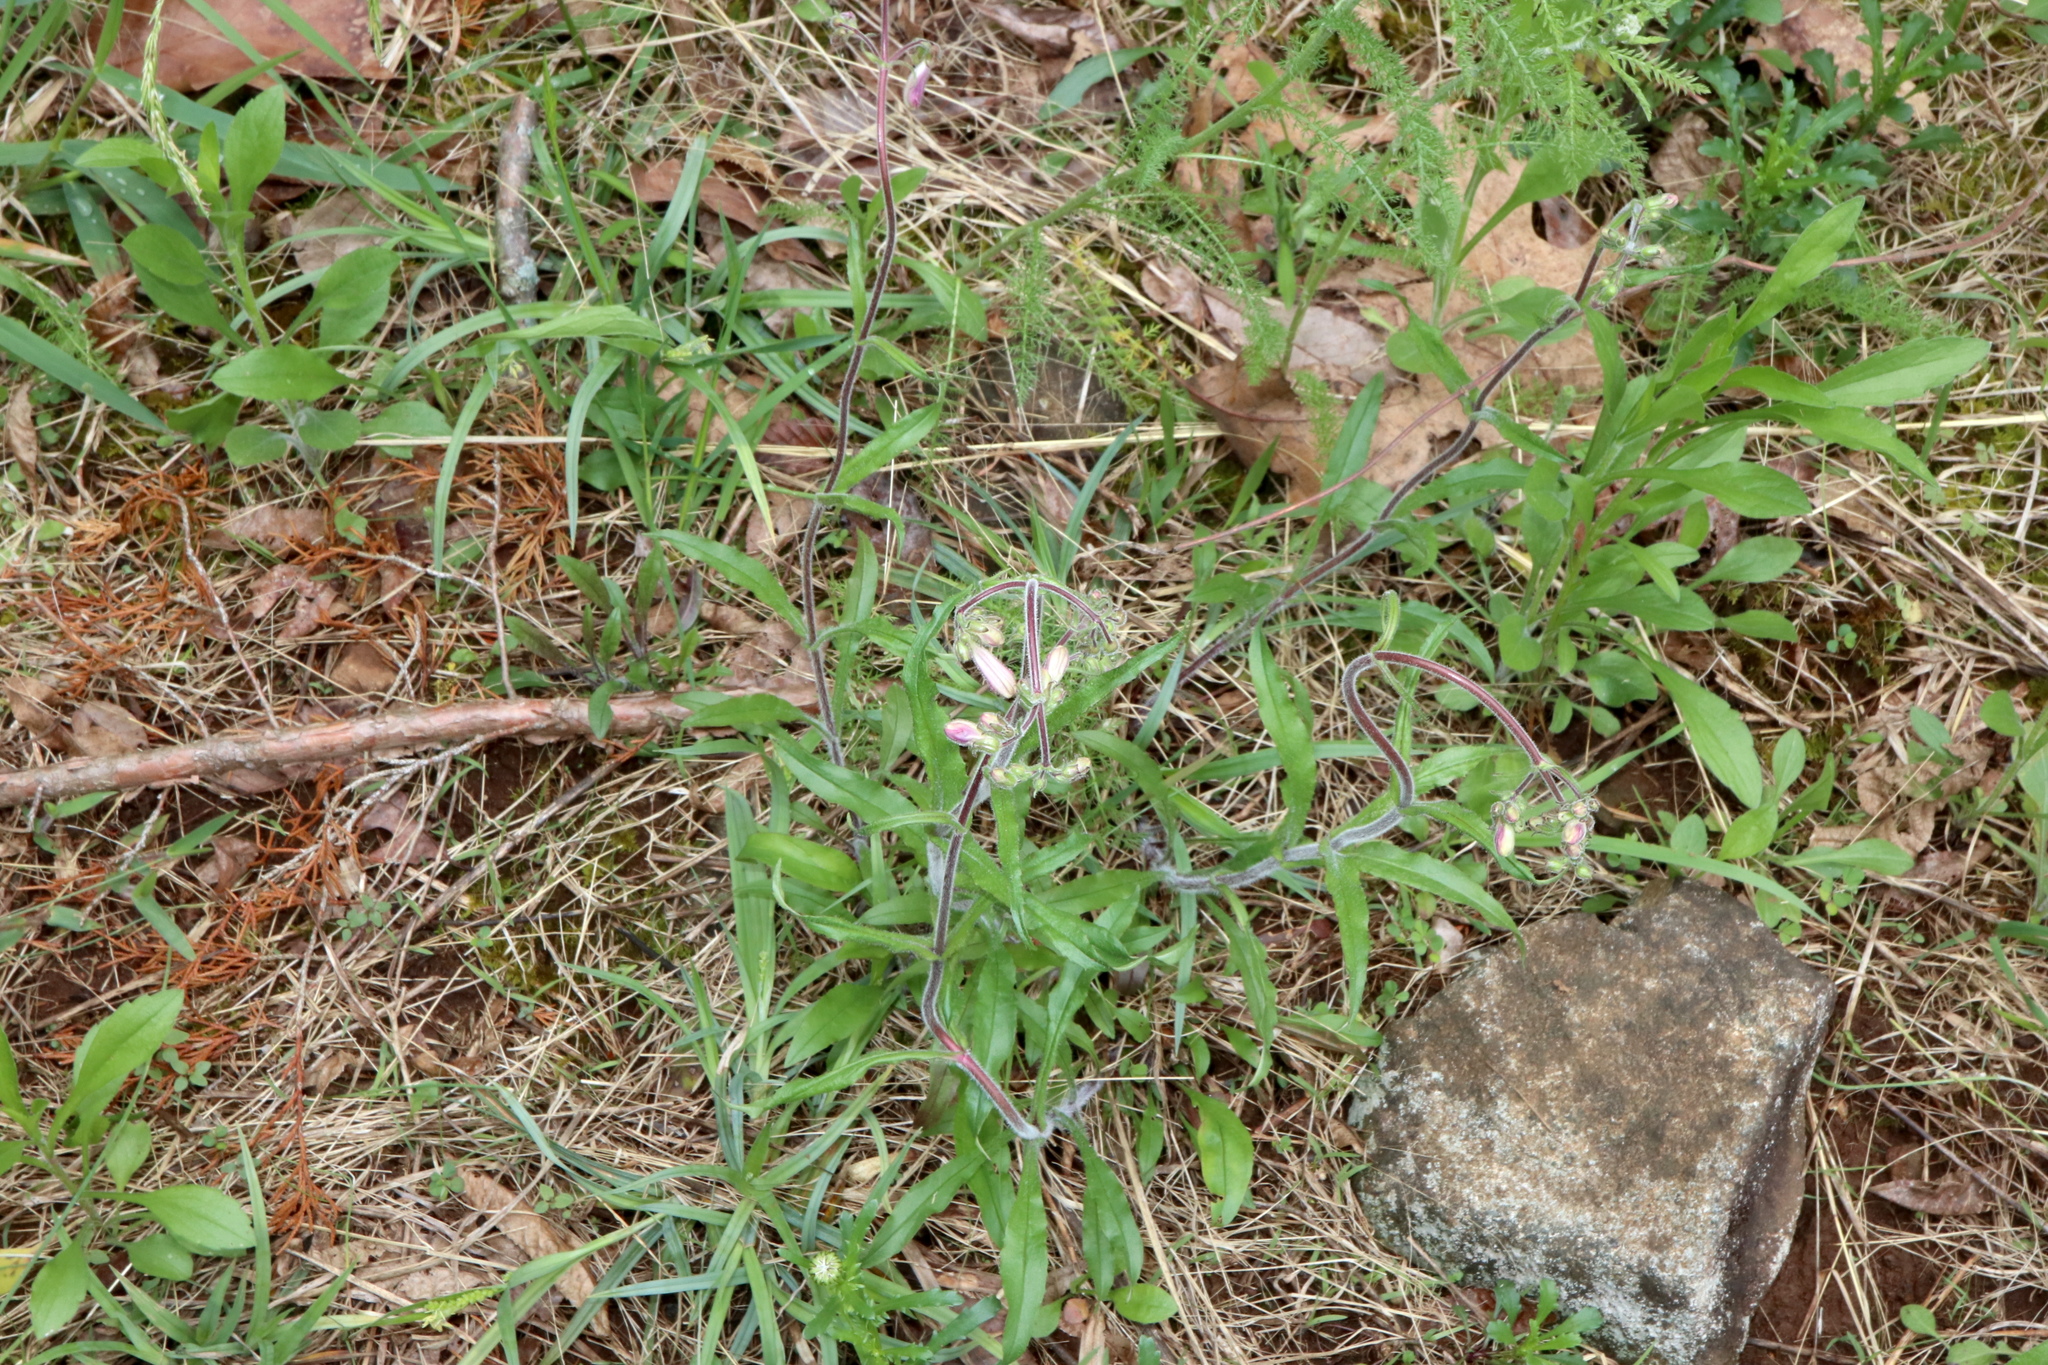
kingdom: Plantae
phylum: Tracheophyta
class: Magnoliopsida
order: Lamiales
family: Plantaginaceae
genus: Penstemon
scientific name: Penstemon hirsutus
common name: Hairy beardtongue
